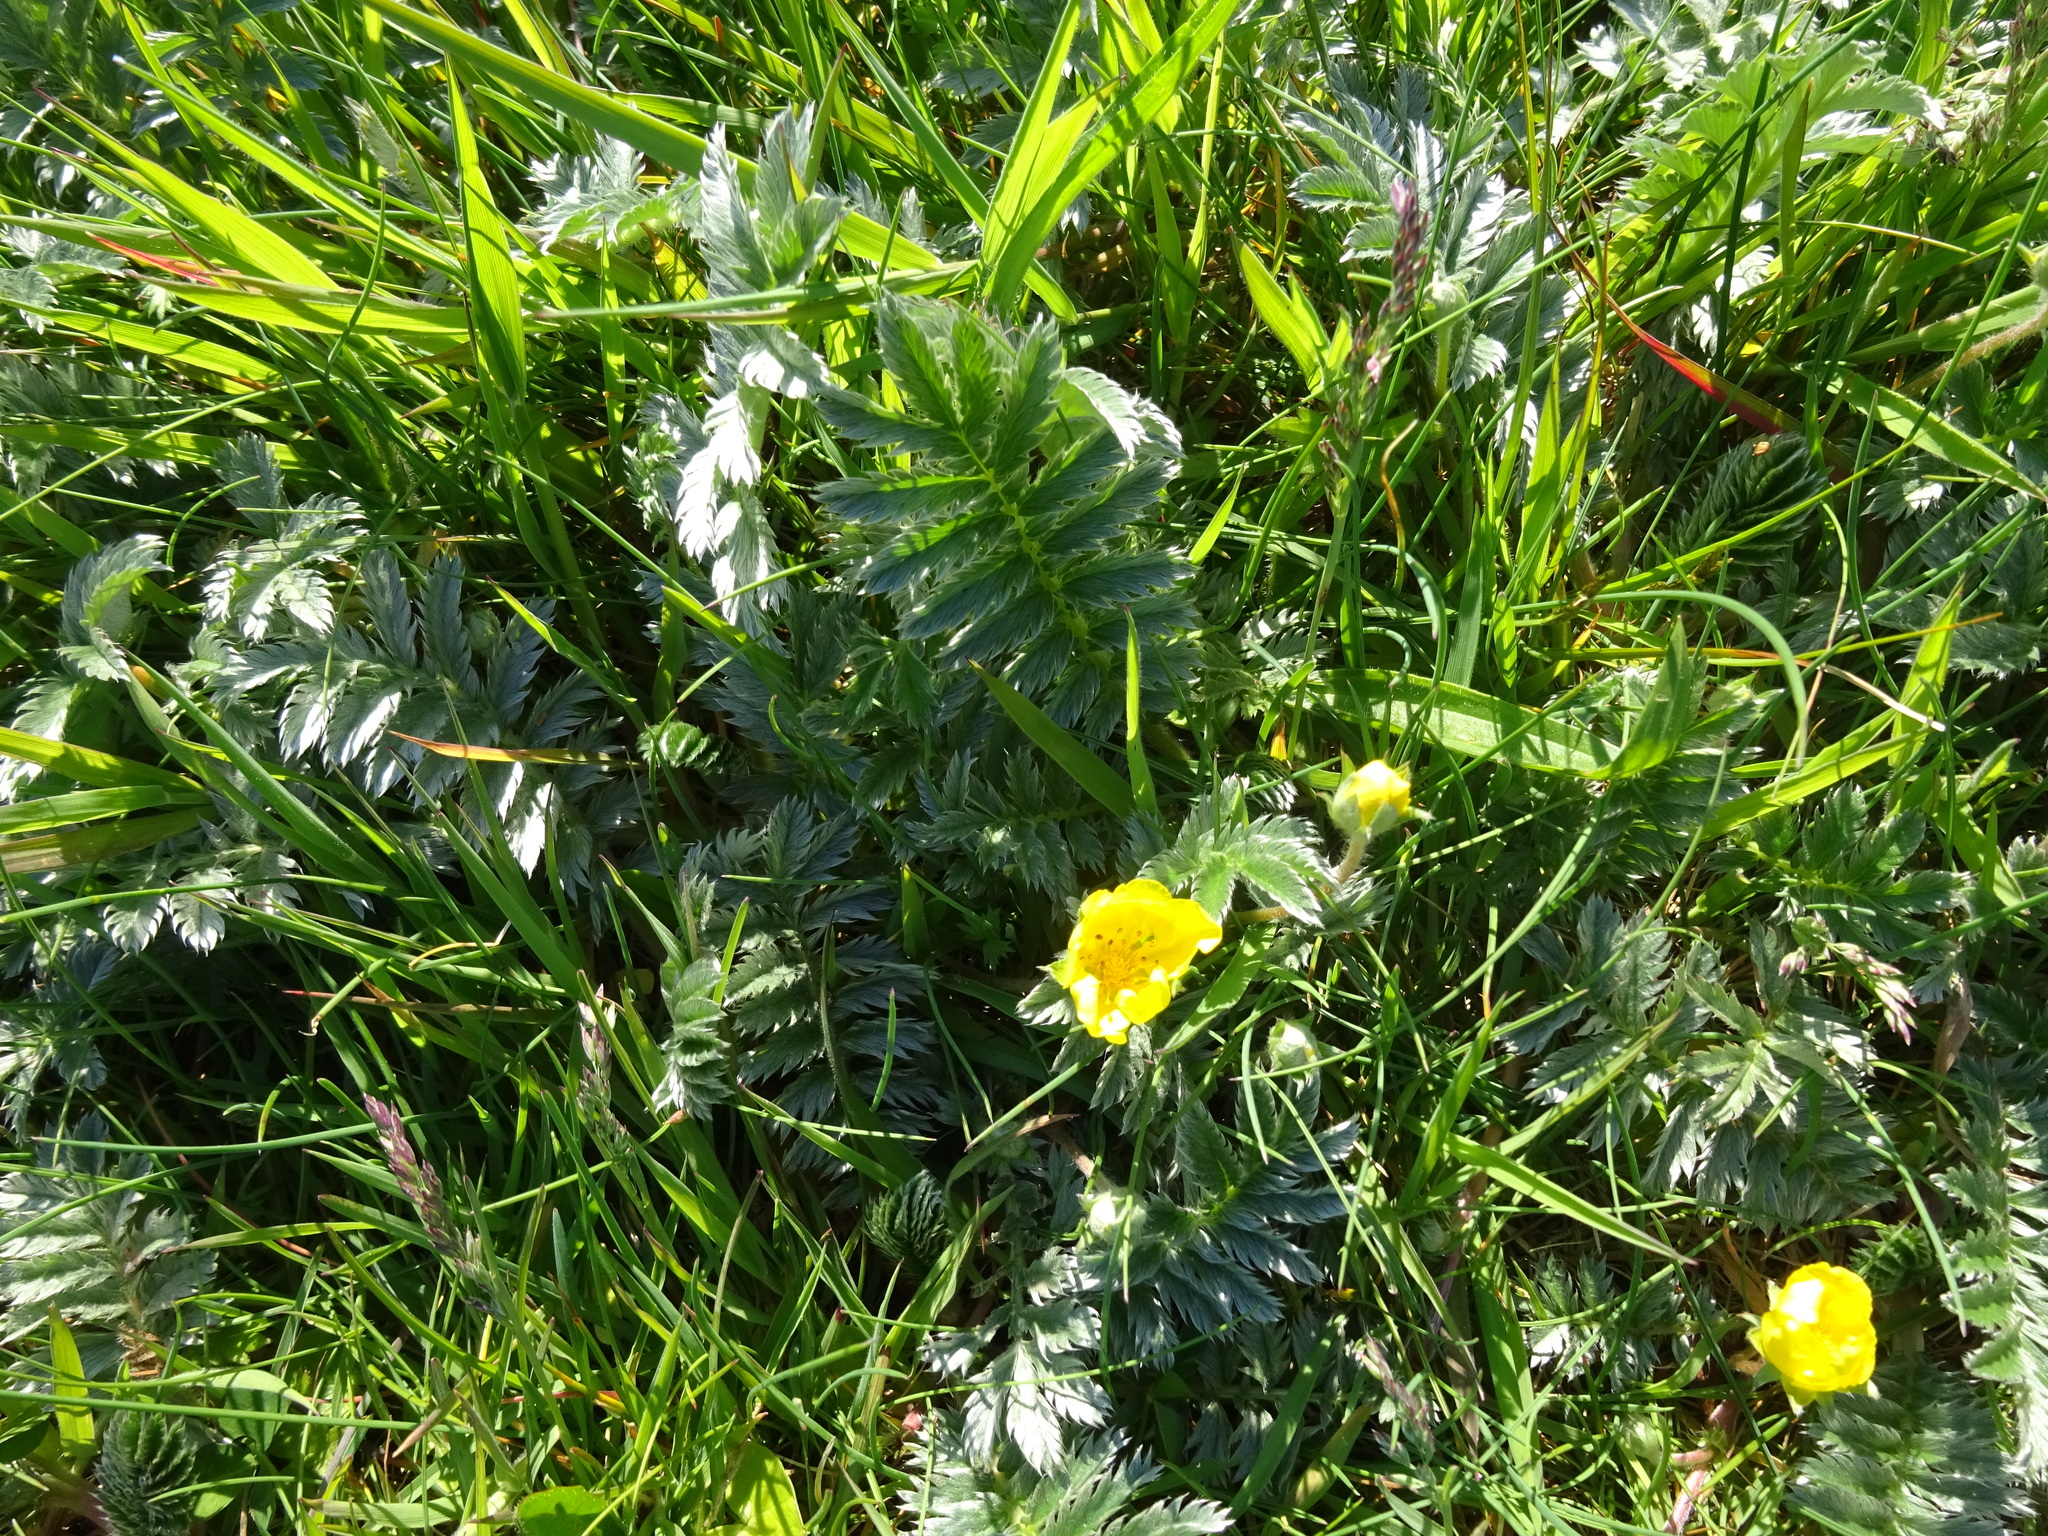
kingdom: Plantae
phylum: Tracheophyta
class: Magnoliopsida
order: Rosales
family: Rosaceae
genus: Argentina
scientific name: Argentina anserina
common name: Common silverweed
